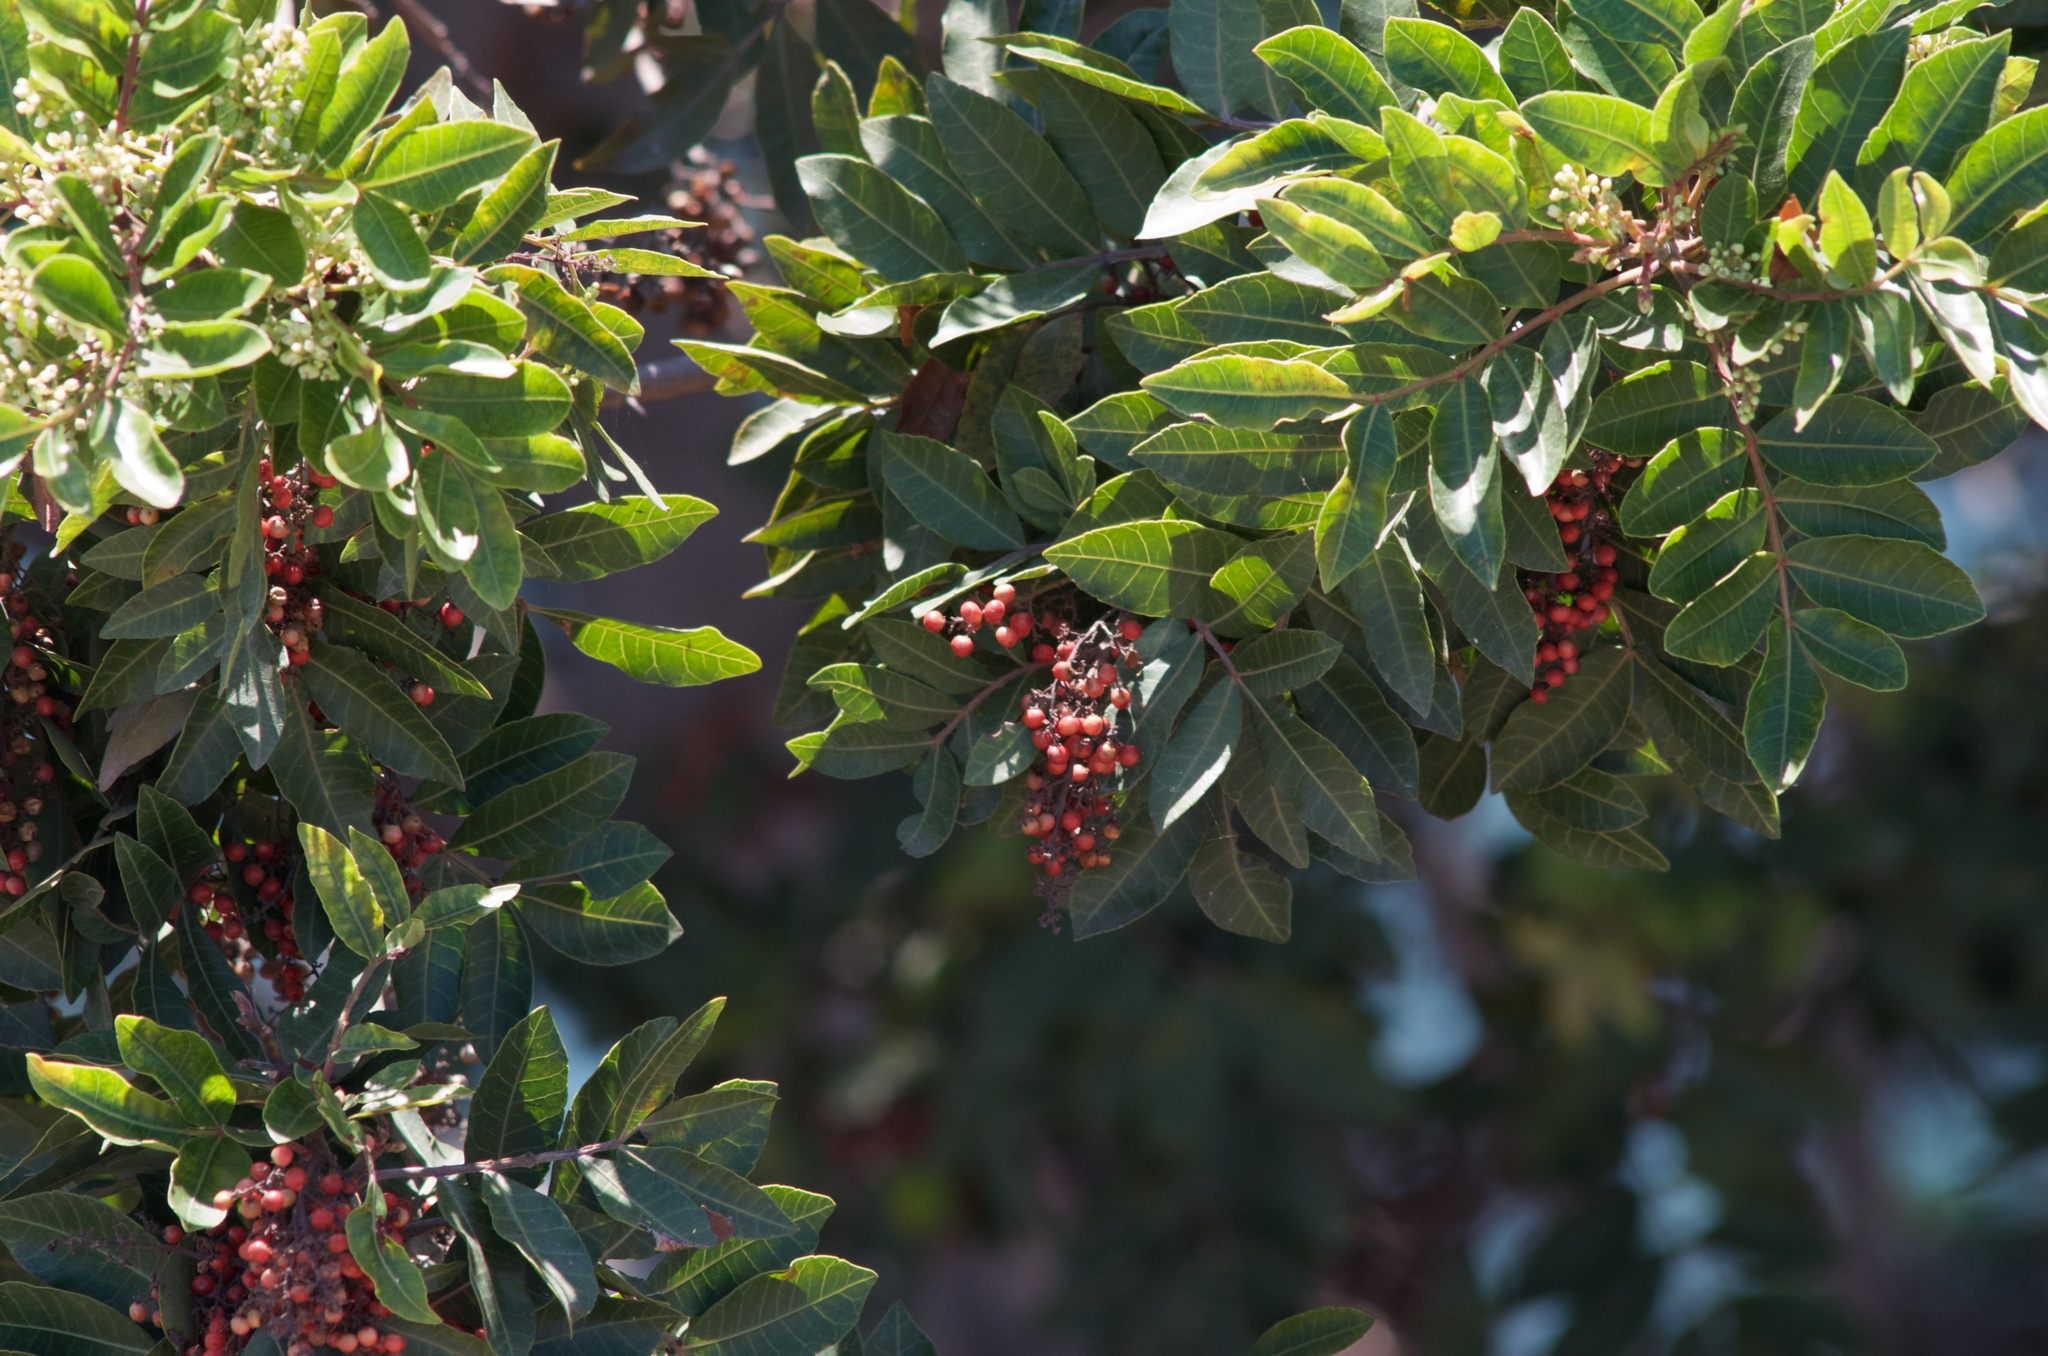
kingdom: Plantae
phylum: Tracheophyta
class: Magnoliopsida
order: Sapindales
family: Anacardiaceae
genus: Schinus
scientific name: Schinus terebinthifolia
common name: Brazilian peppertree
